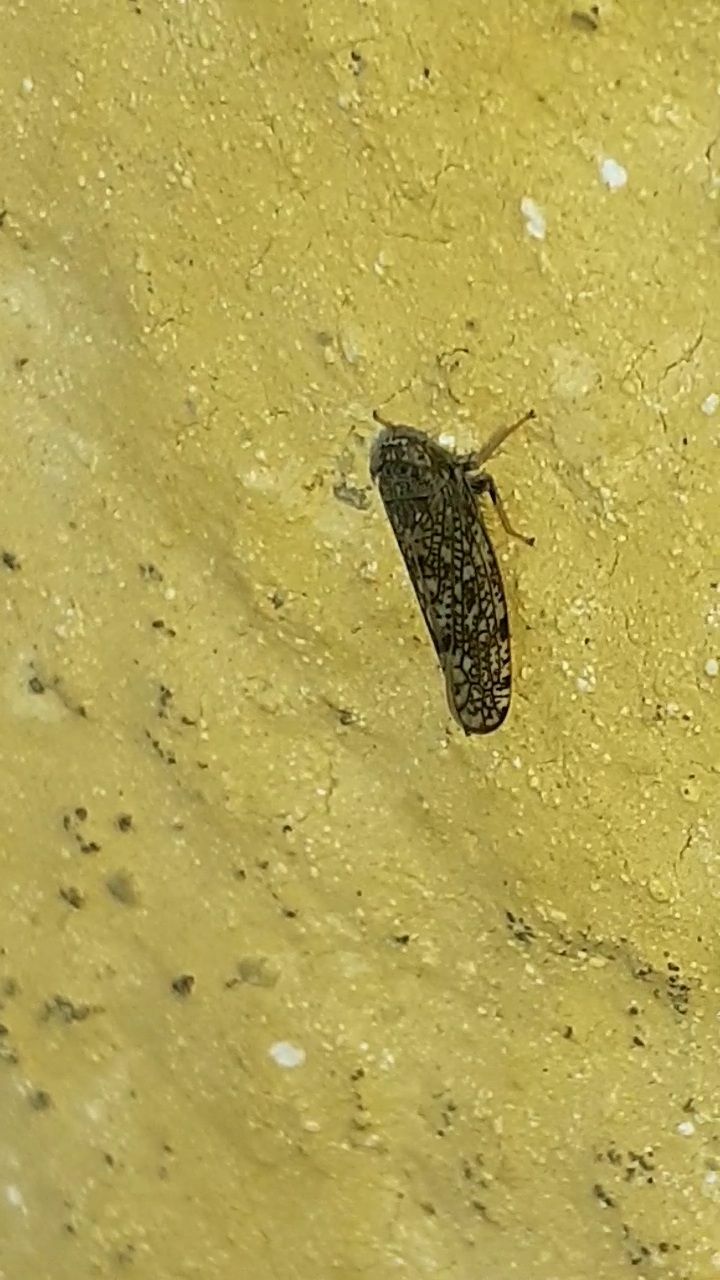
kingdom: Animalia
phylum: Arthropoda
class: Insecta
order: Hemiptera
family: Cicadellidae
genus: Orientus
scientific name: Orientus ishidae
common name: Japanese leafhopper
